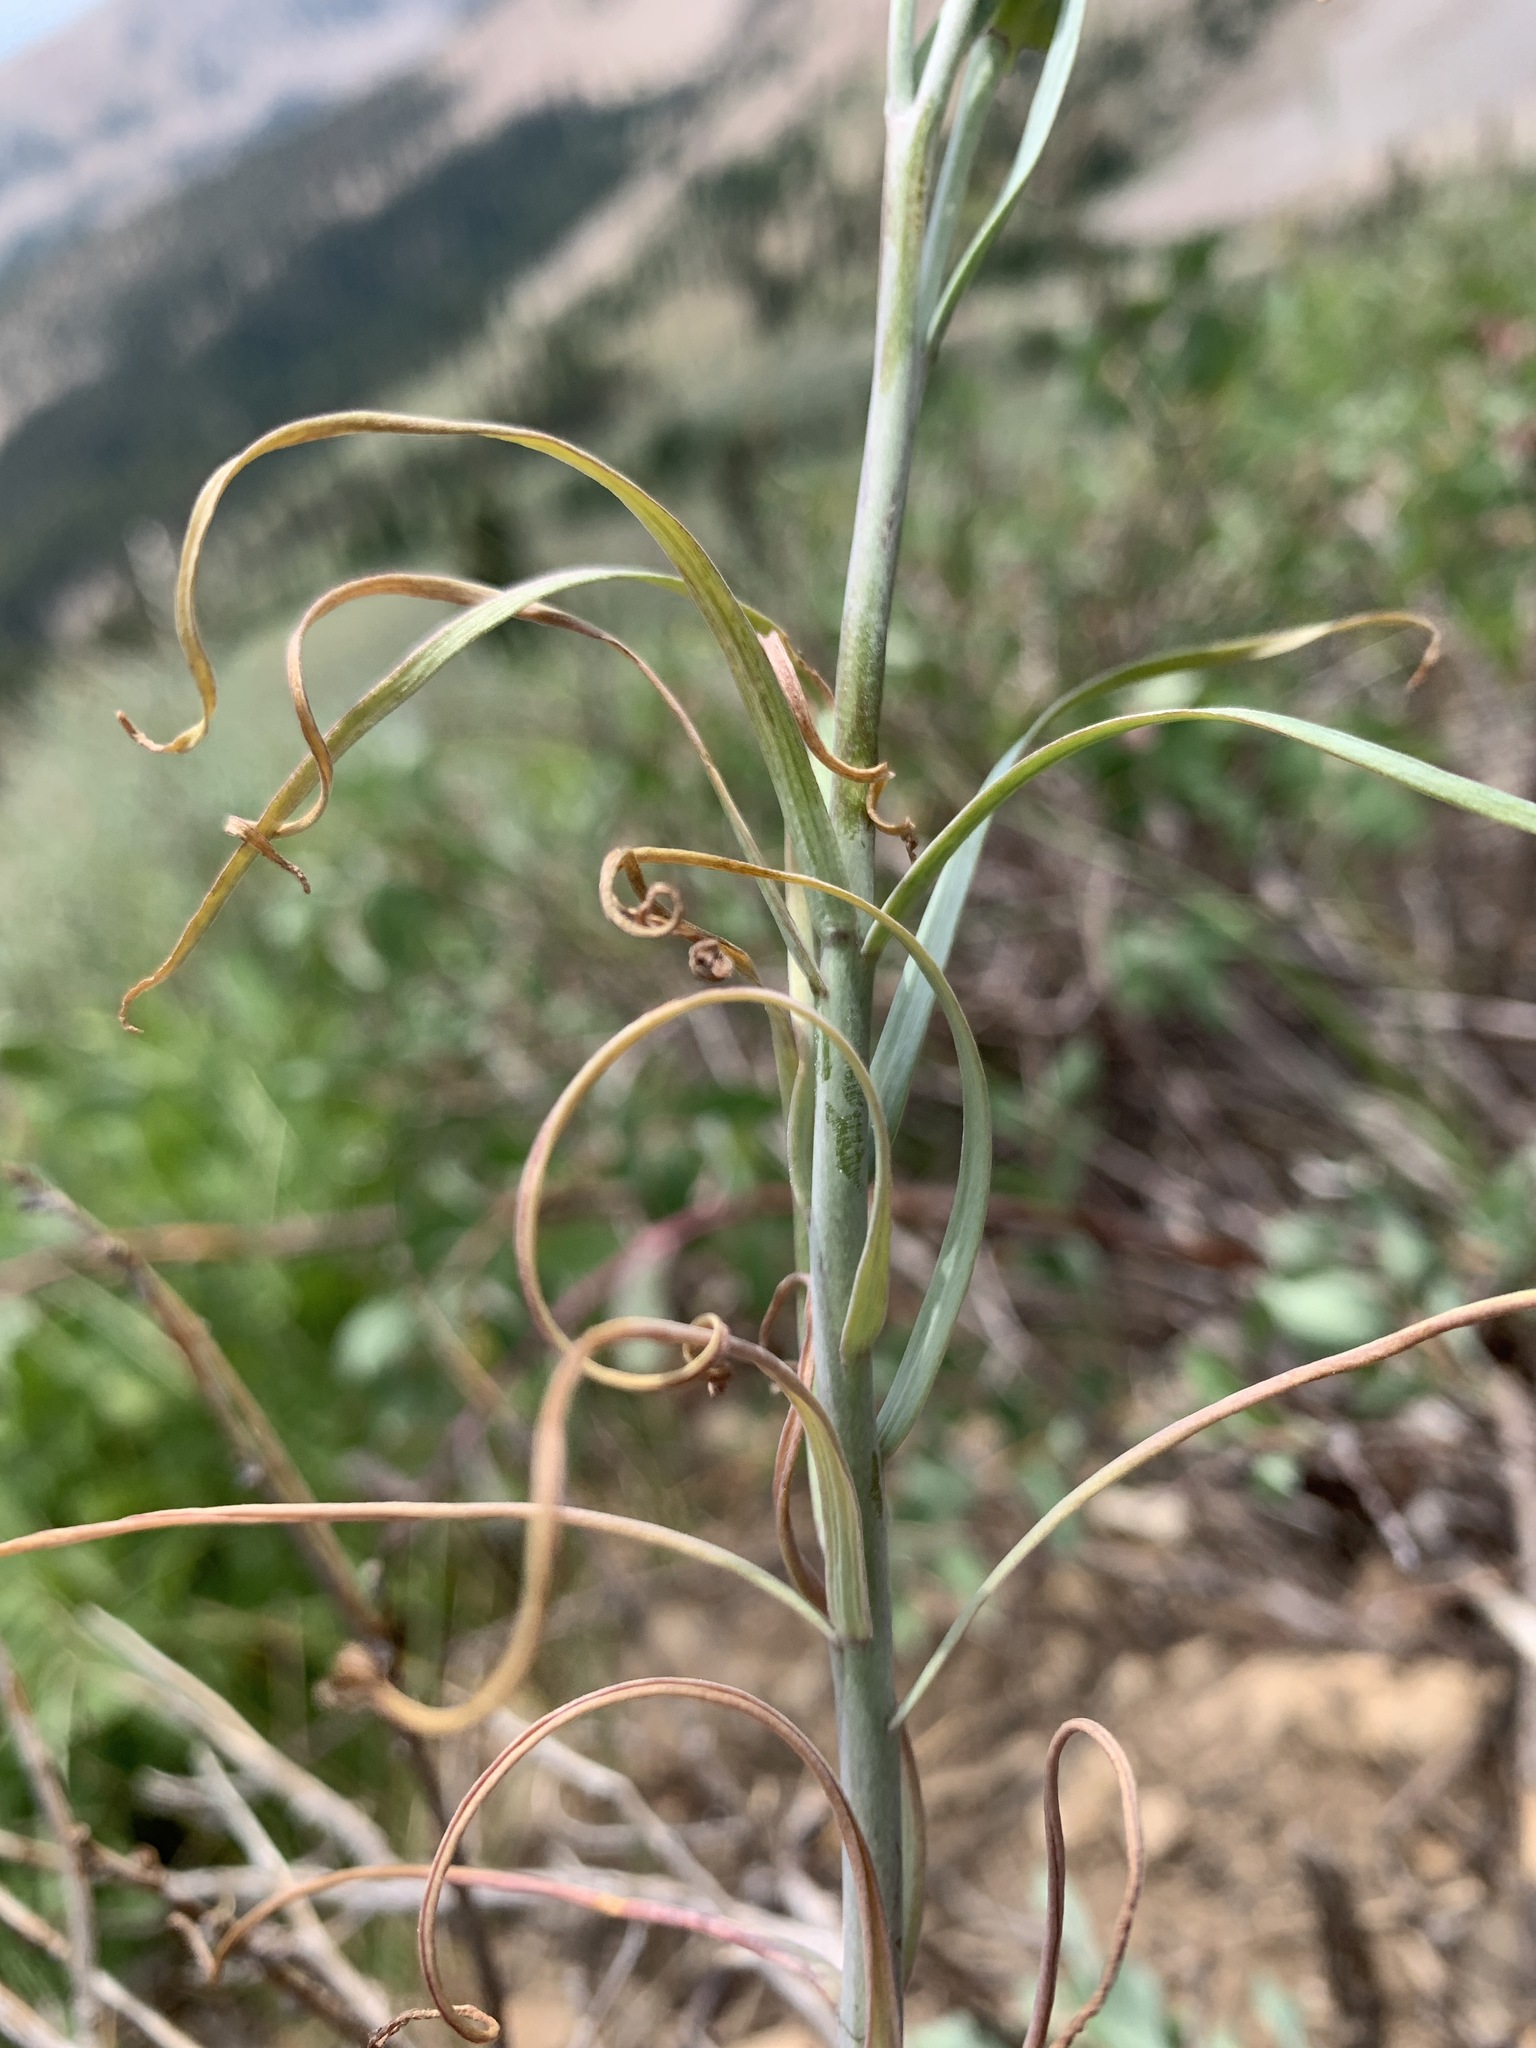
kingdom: Plantae
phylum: Tracheophyta
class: Liliopsida
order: Liliales
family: Liliaceae
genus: Fritillaria
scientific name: Fritillaria atropurpurea
